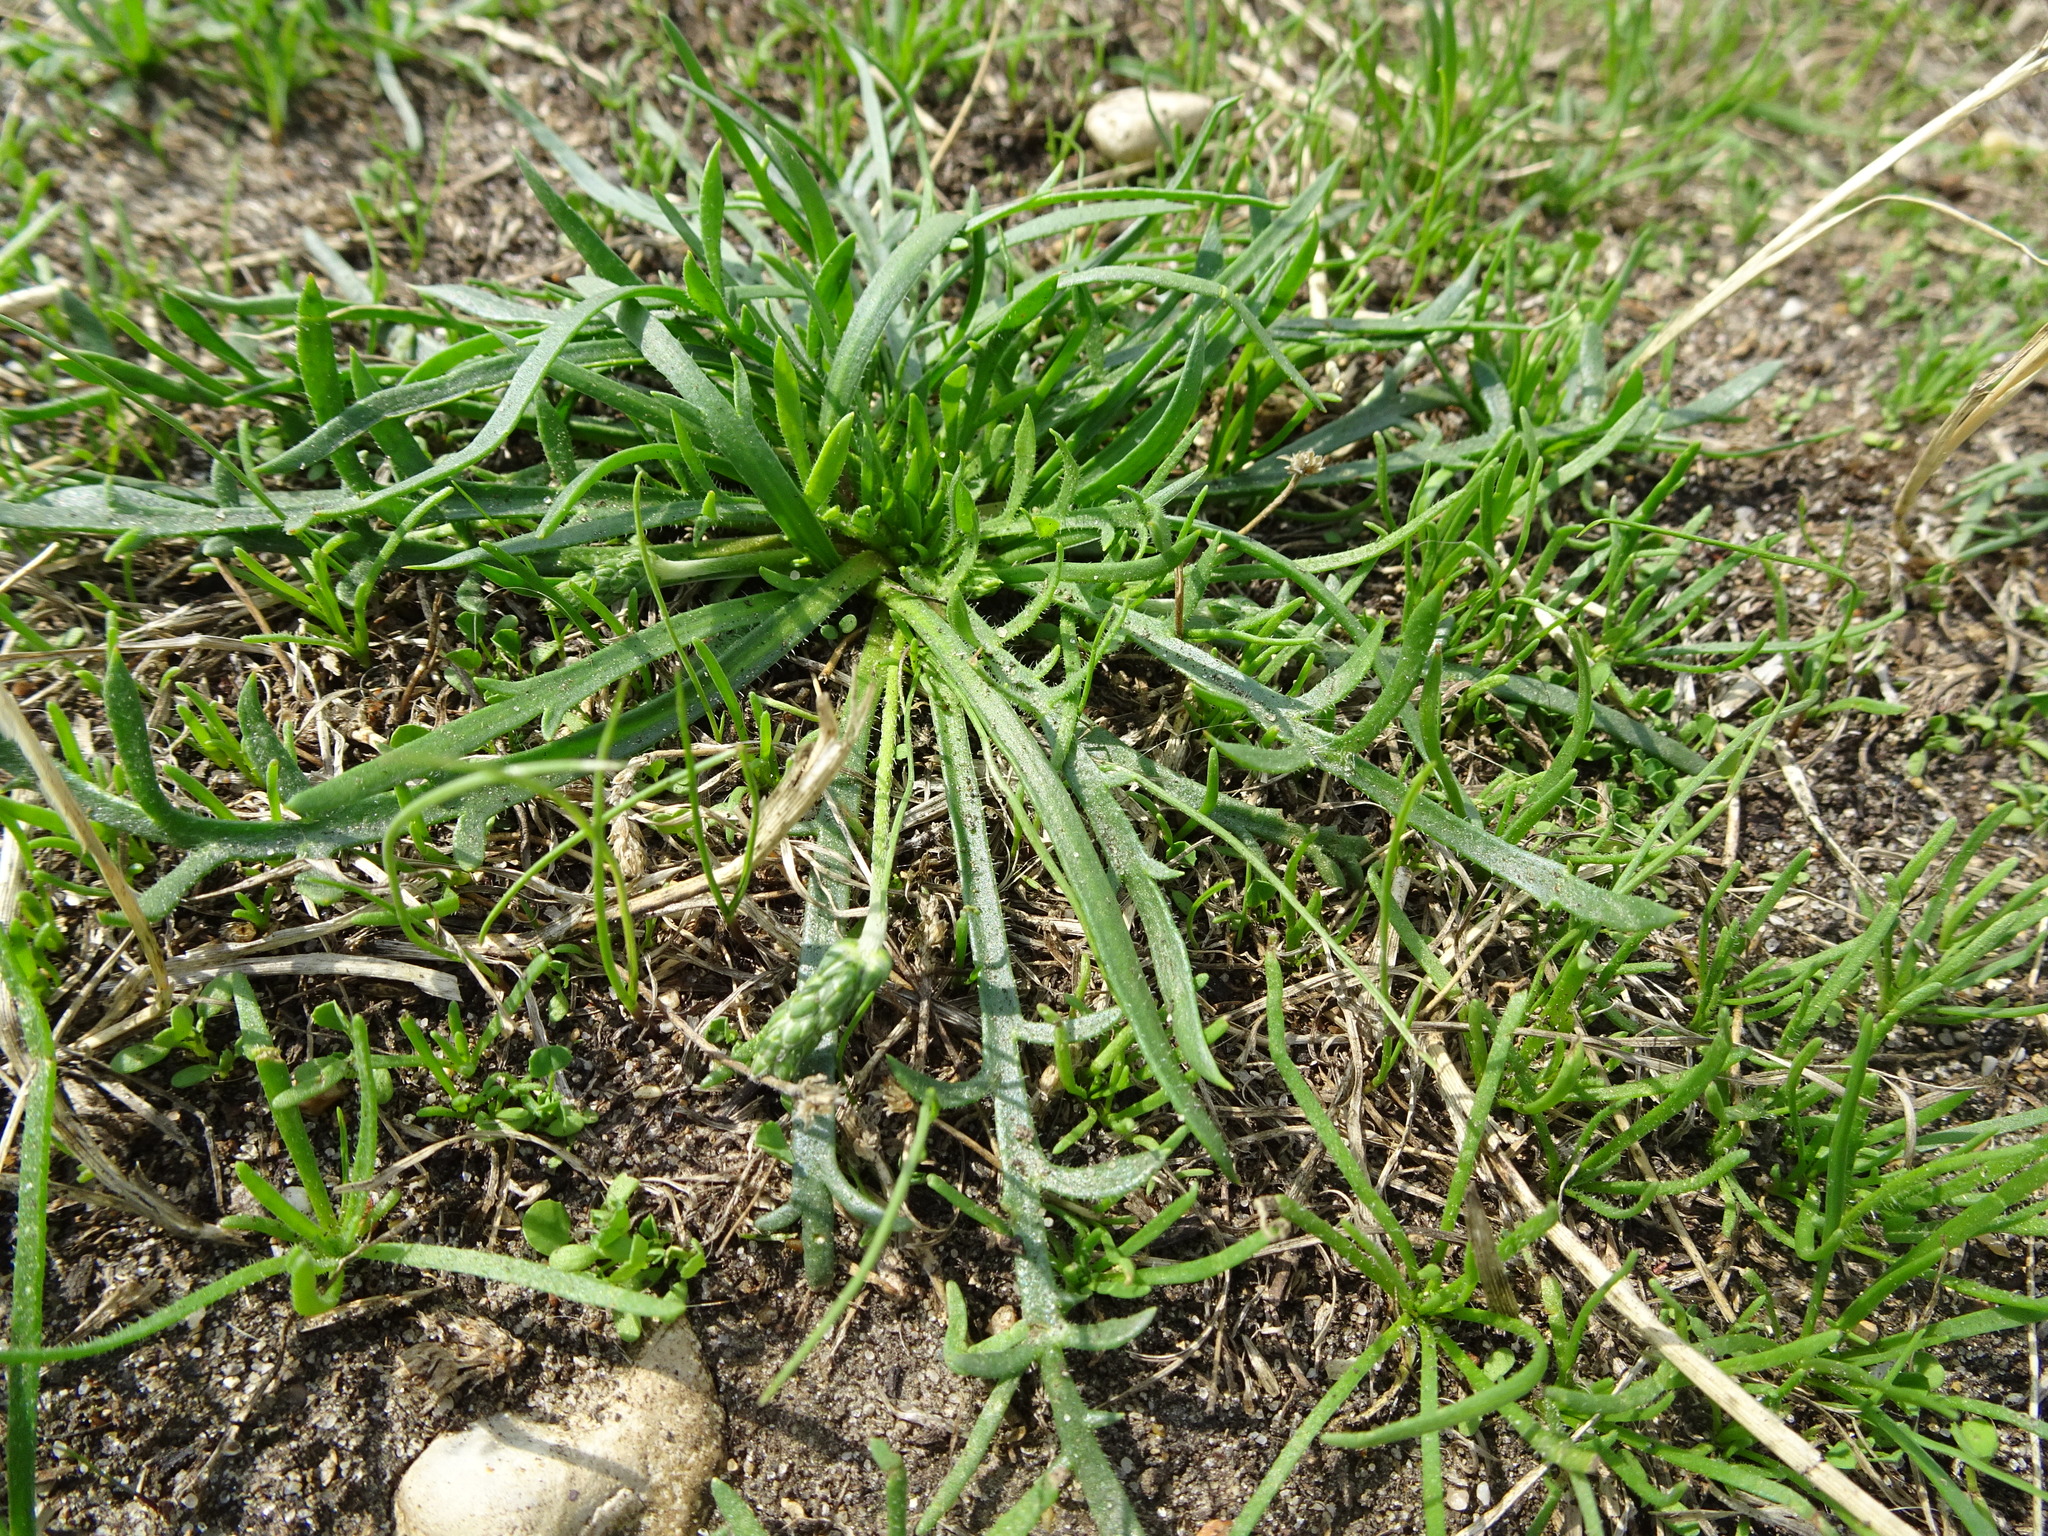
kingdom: Plantae
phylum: Tracheophyta
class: Magnoliopsida
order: Lamiales
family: Plantaginaceae
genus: Plantago
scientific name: Plantago coronopus
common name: Buck's-horn plantain
